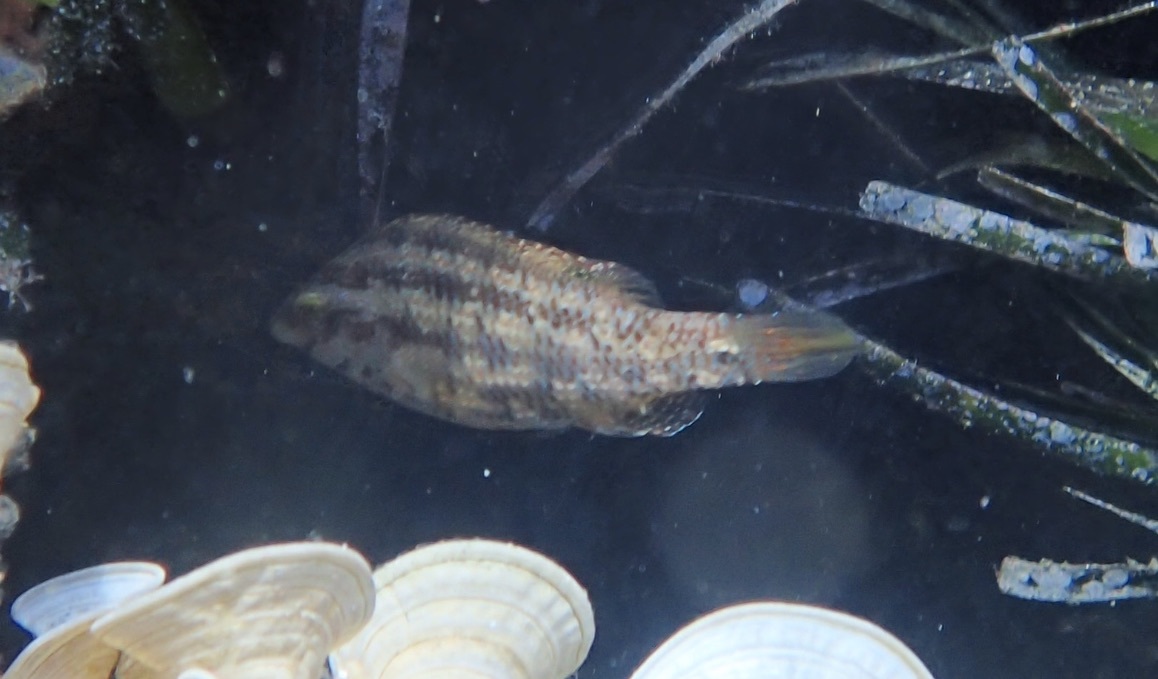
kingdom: Animalia
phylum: Chordata
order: Perciformes
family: Labridae
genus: Symphodus
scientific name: Symphodus roissali
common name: Five-spotted wrasse
